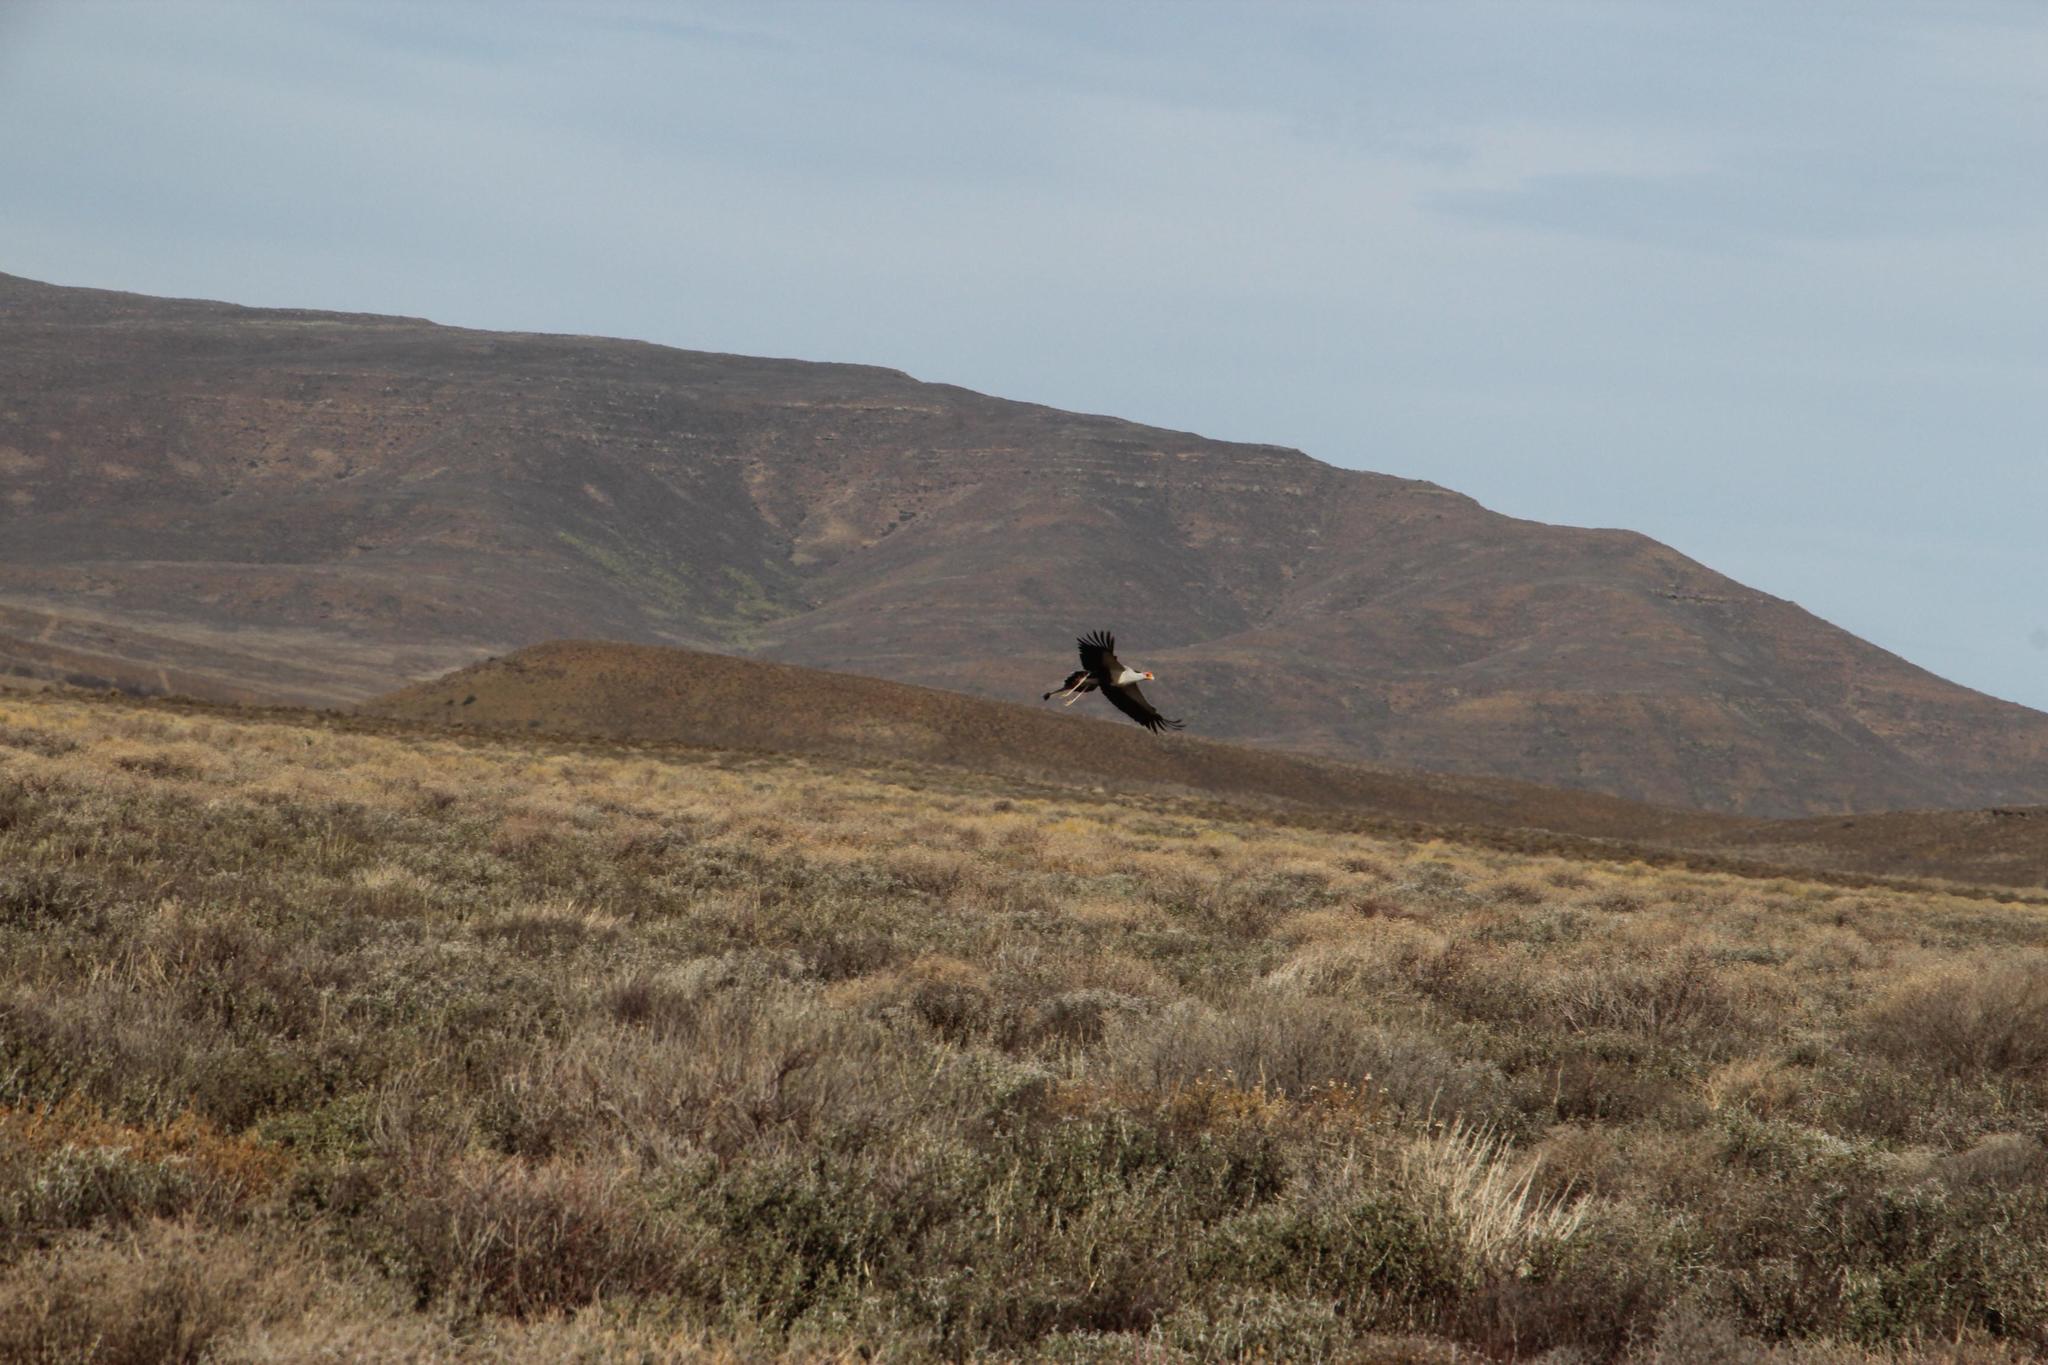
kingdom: Animalia
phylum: Chordata
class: Aves
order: Accipitriformes
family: Sagittariidae
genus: Sagittarius
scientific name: Sagittarius serpentarius
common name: Secretarybird
